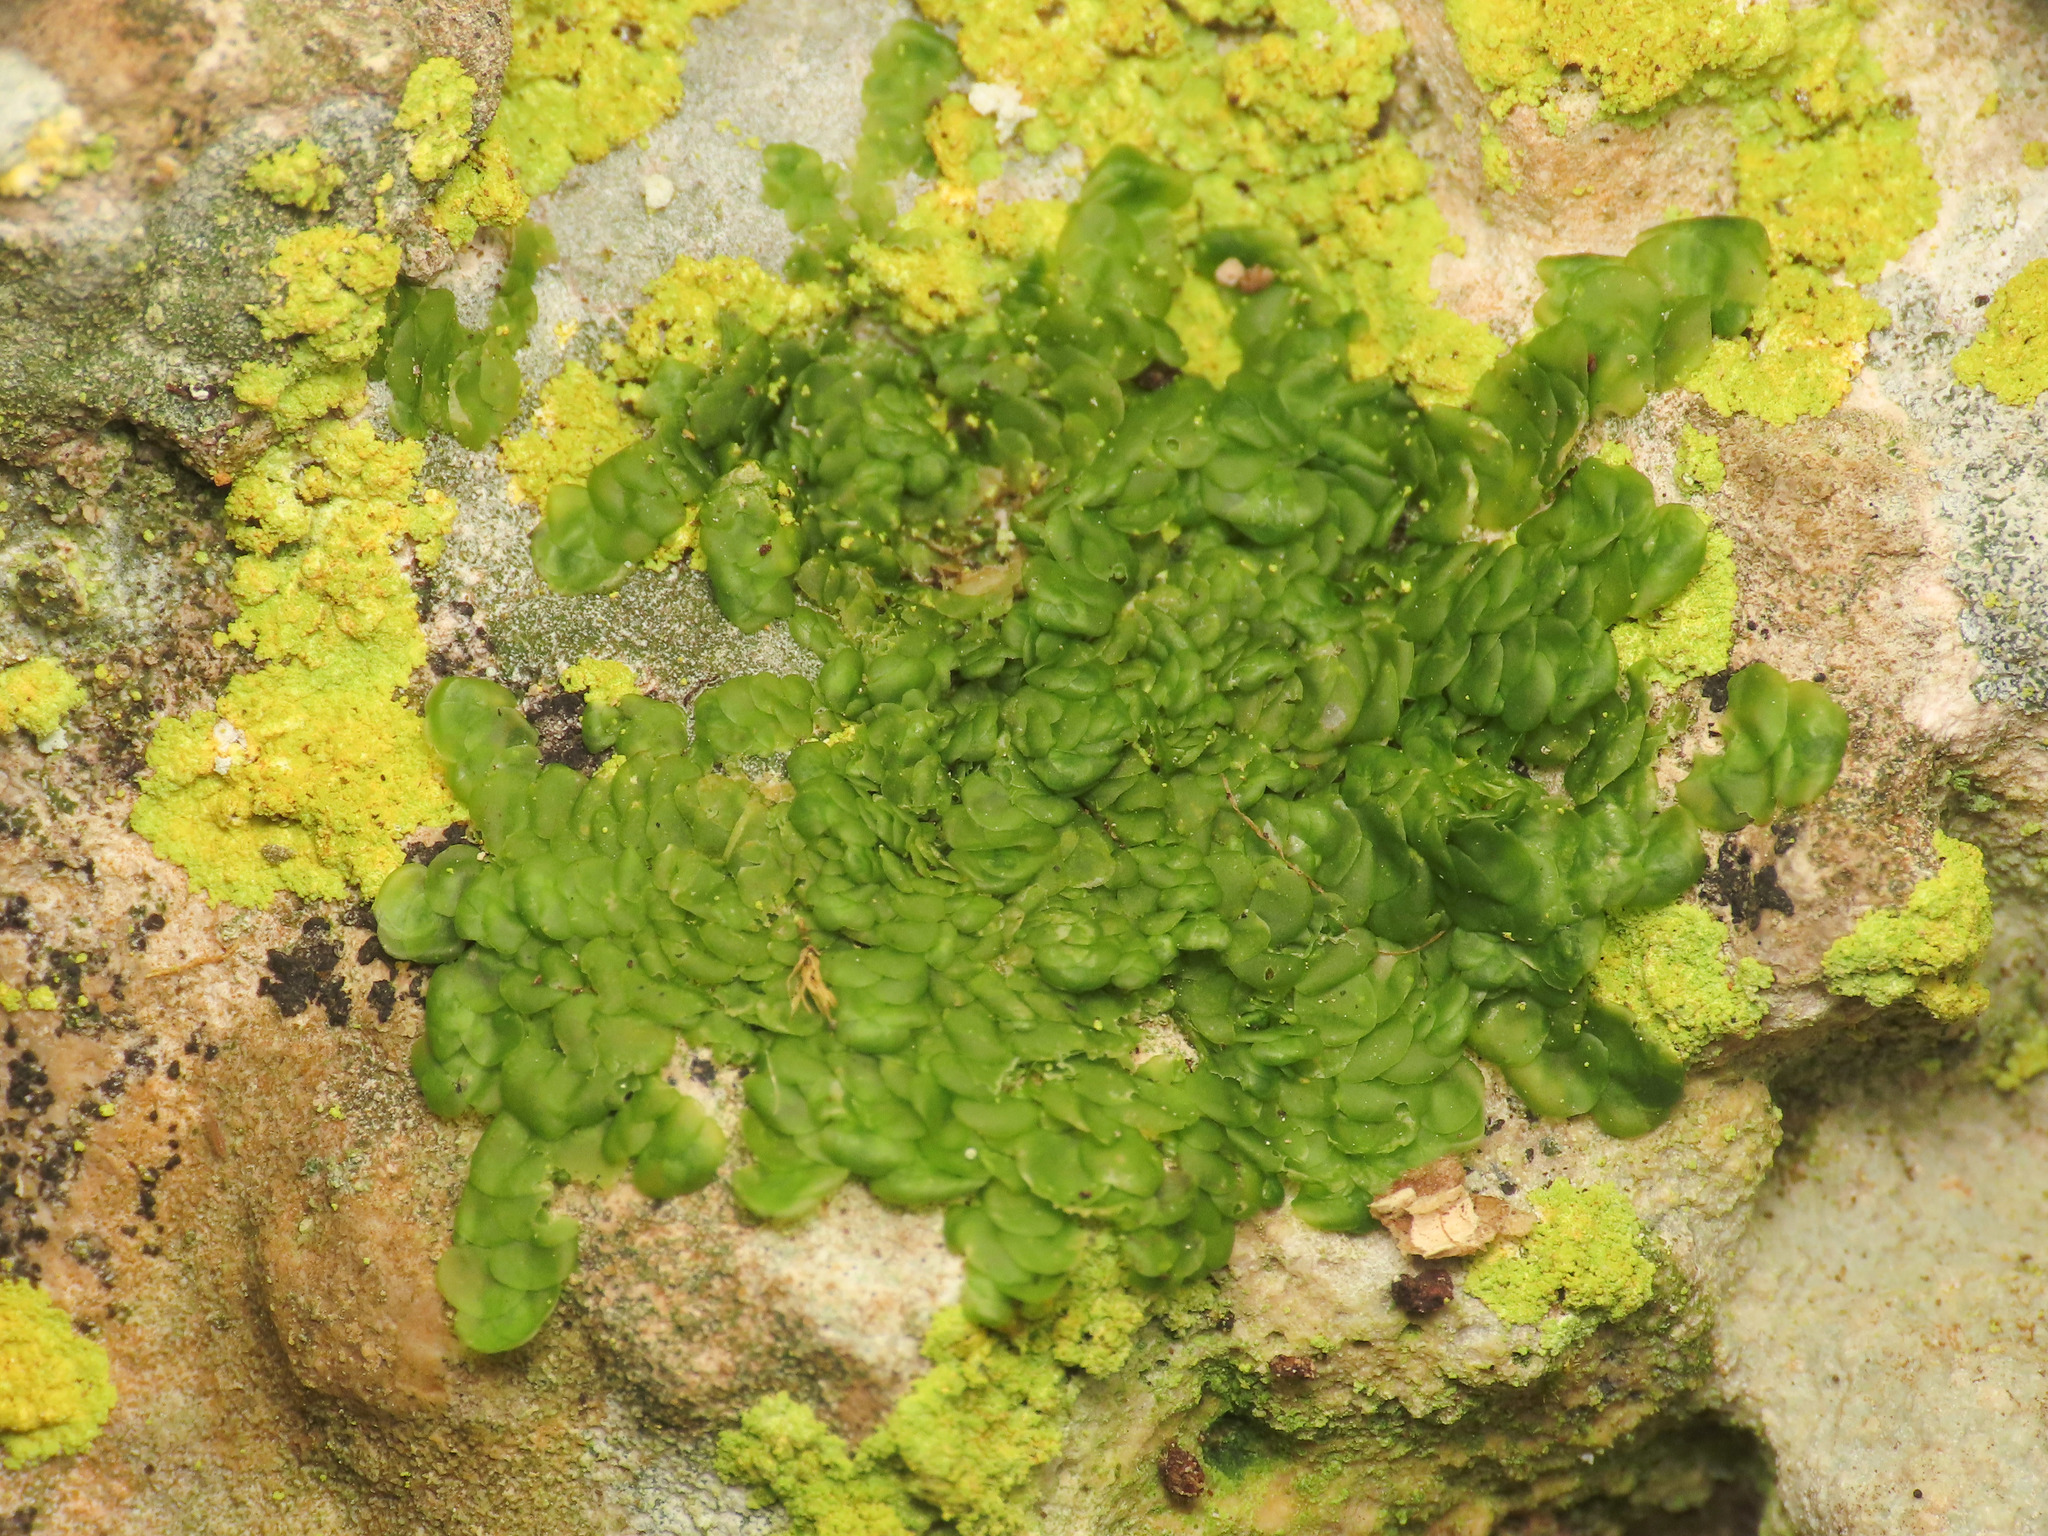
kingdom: Plantae
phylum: Marchantiophyta
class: Jungermanniopsida
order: Porellales
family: Radulaceae
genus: Radula
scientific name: Radula complanata
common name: Flat-leaved scalewort
